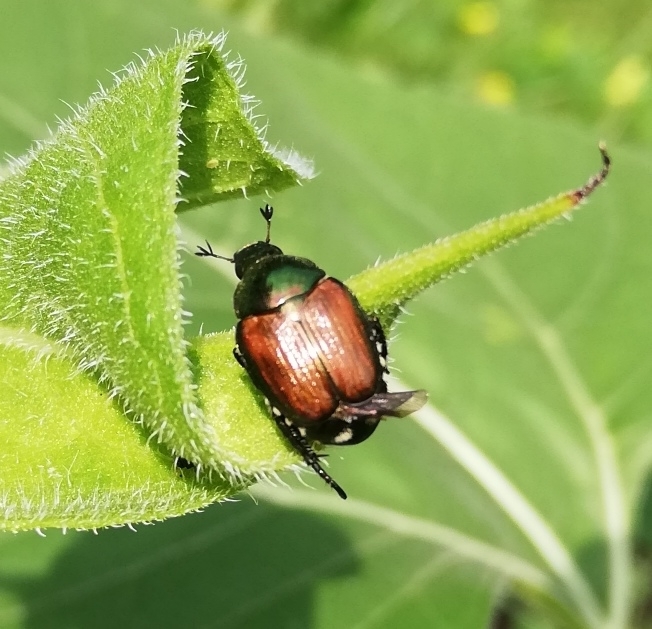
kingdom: Animalia
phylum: Arthropoda
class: Insecta
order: Coleoptera
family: Scarabaeidae
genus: Popillia
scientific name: Popillia japonica
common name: Japanese beetle
